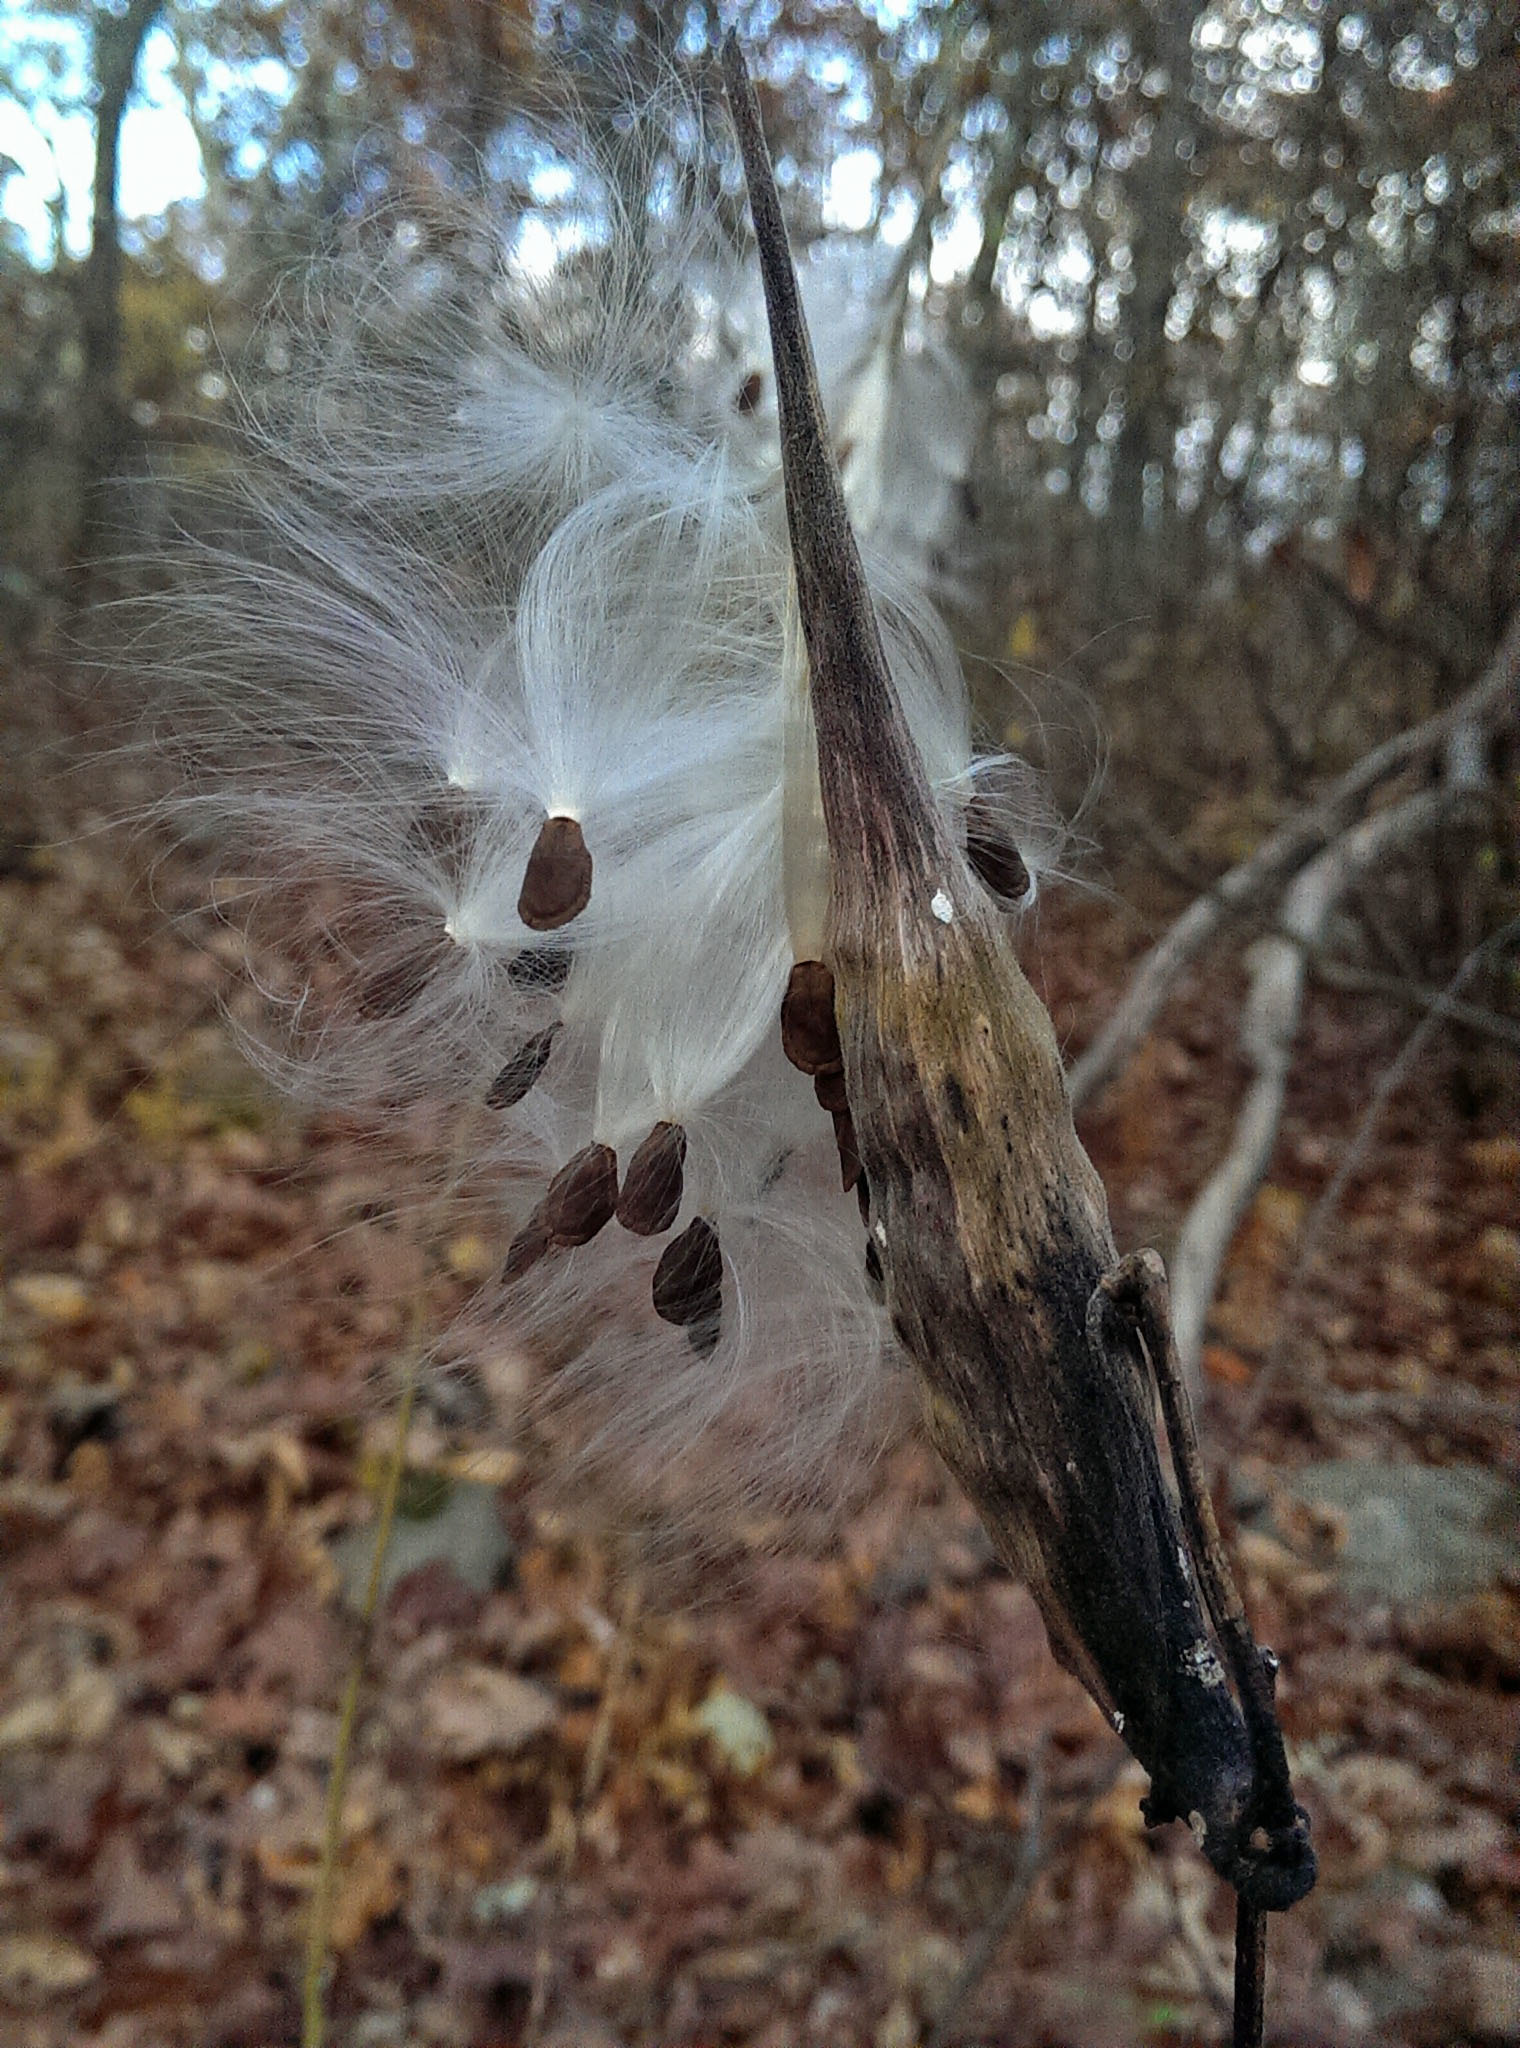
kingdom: Plantae
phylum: Tracheophyta
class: Magnoliopsida
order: Gentianales
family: Apocynaceae
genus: Asclepias
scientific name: Asclepias exaltata
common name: Poke milkweed
